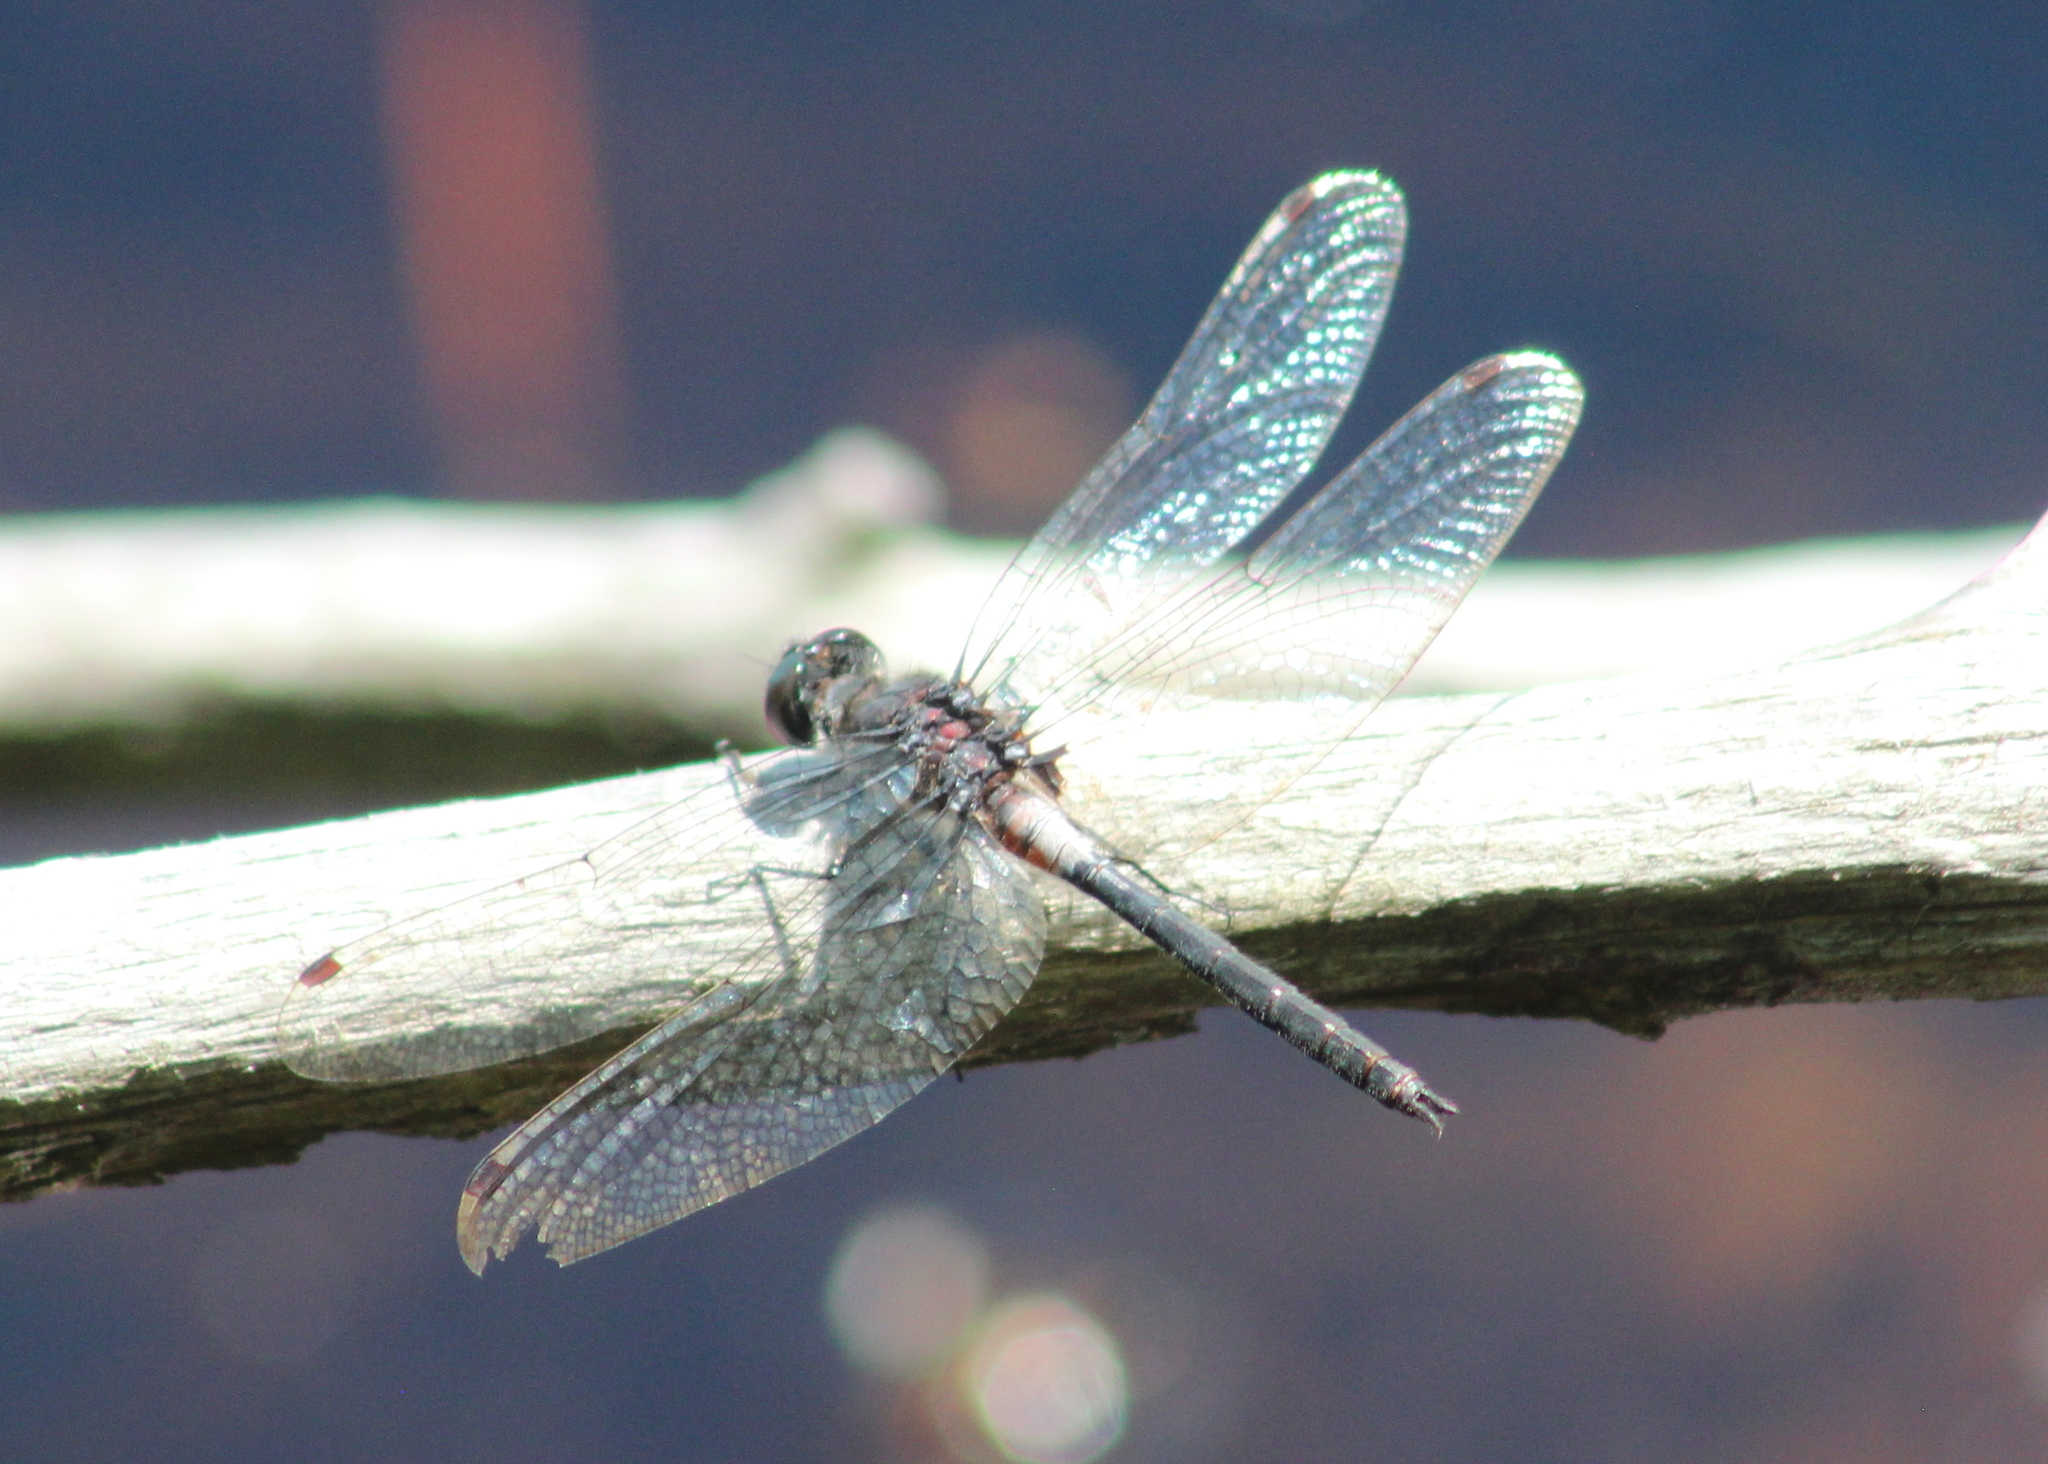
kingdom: Animalia
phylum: Arthropoda
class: Insecta
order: Odonata
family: Libellulidae
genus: Leucorrhinia
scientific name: Leucorrhinia proxima
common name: Belted whiteface
